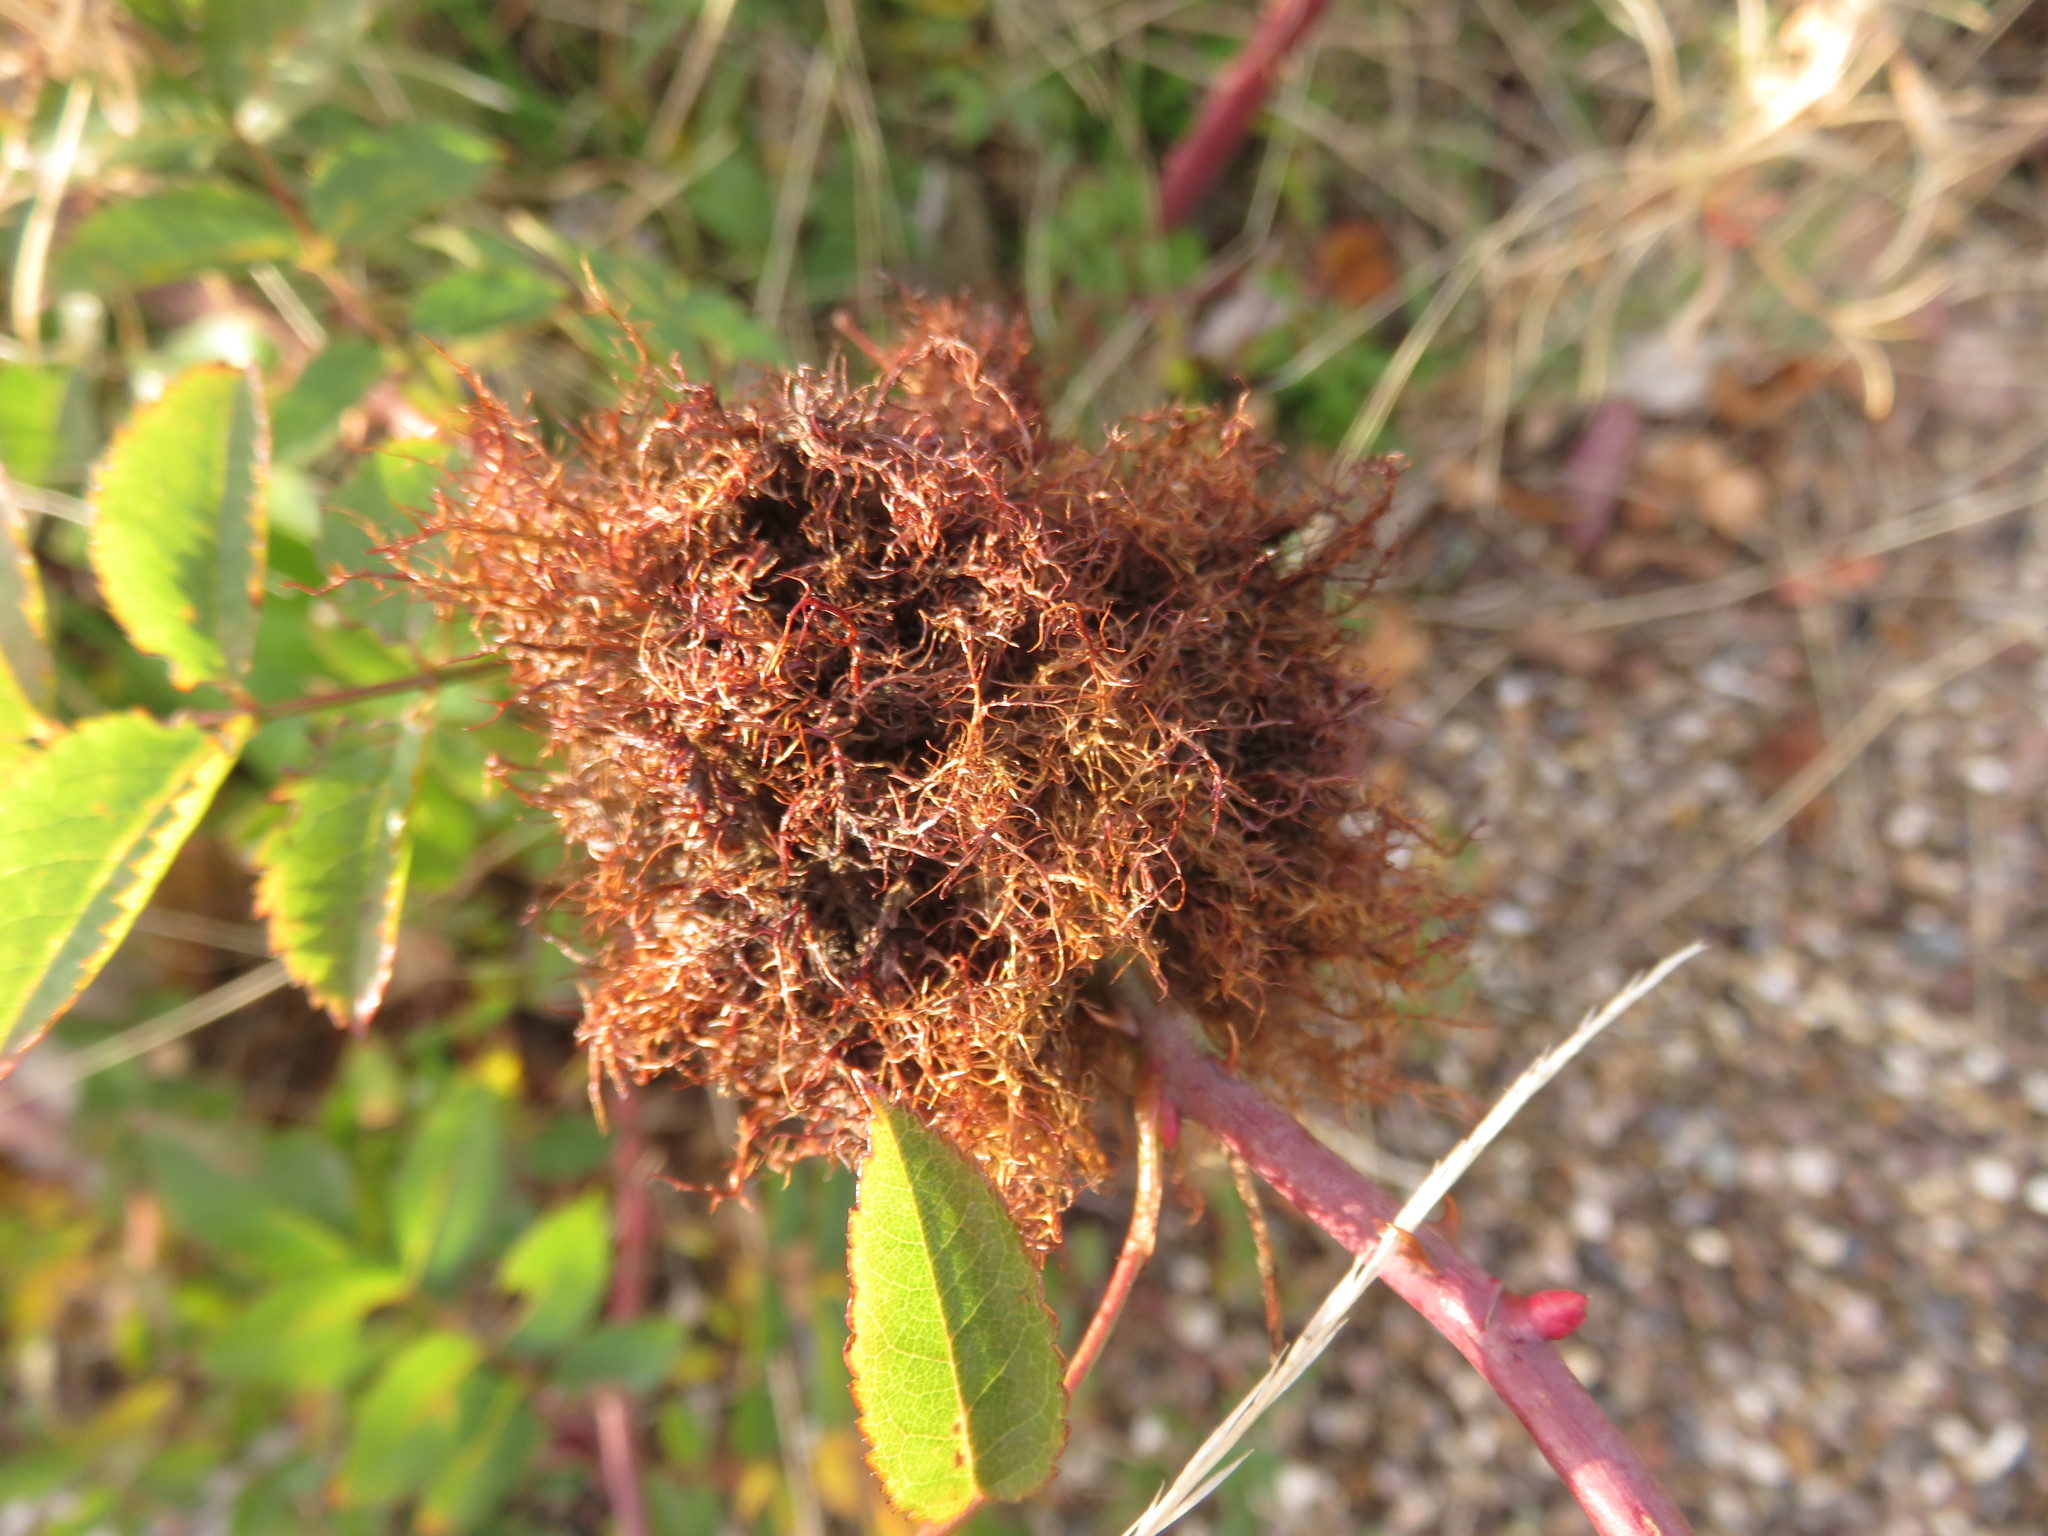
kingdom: Animalia
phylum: Arthropoda
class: Insecta
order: Hymenoptera
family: Cynipidae
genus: Diplolepis
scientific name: Diplolepis rosae
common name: Bedeguar gall
